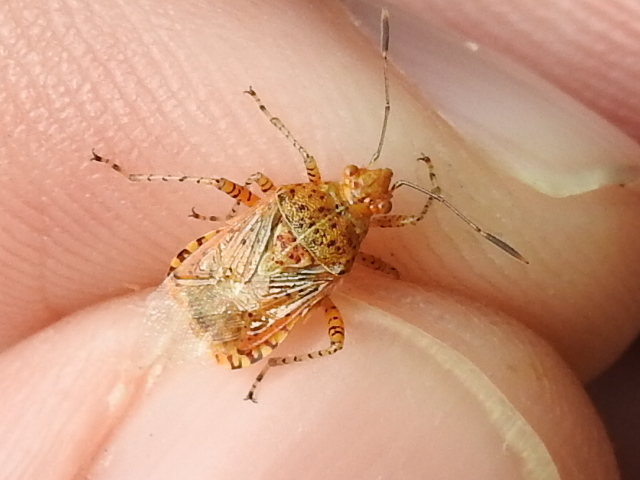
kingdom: Animalia
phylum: Arthropoda
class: Insecta
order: Hemiptera
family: Rhopalidae
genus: Niesthrea
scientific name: Niesthrea louisianica
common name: Scentless plant bug
